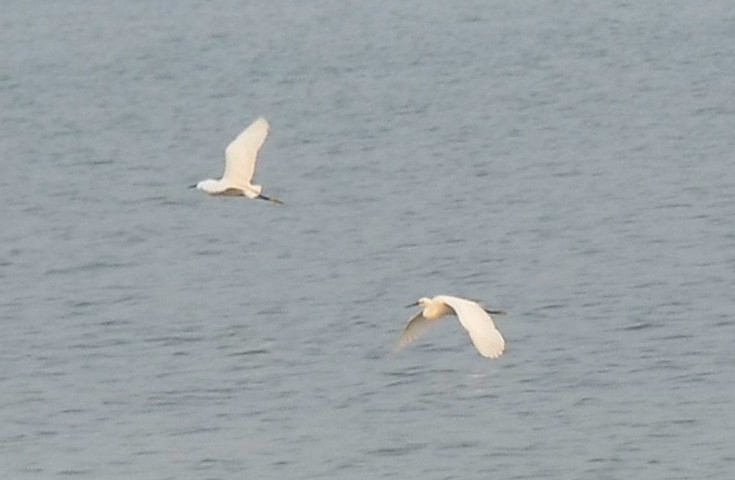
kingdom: Animalia
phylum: Chordata
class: Aves
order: Pelecaniformes
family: Ardeidae
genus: Egretta
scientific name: Egretta garzetta
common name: Little egret
